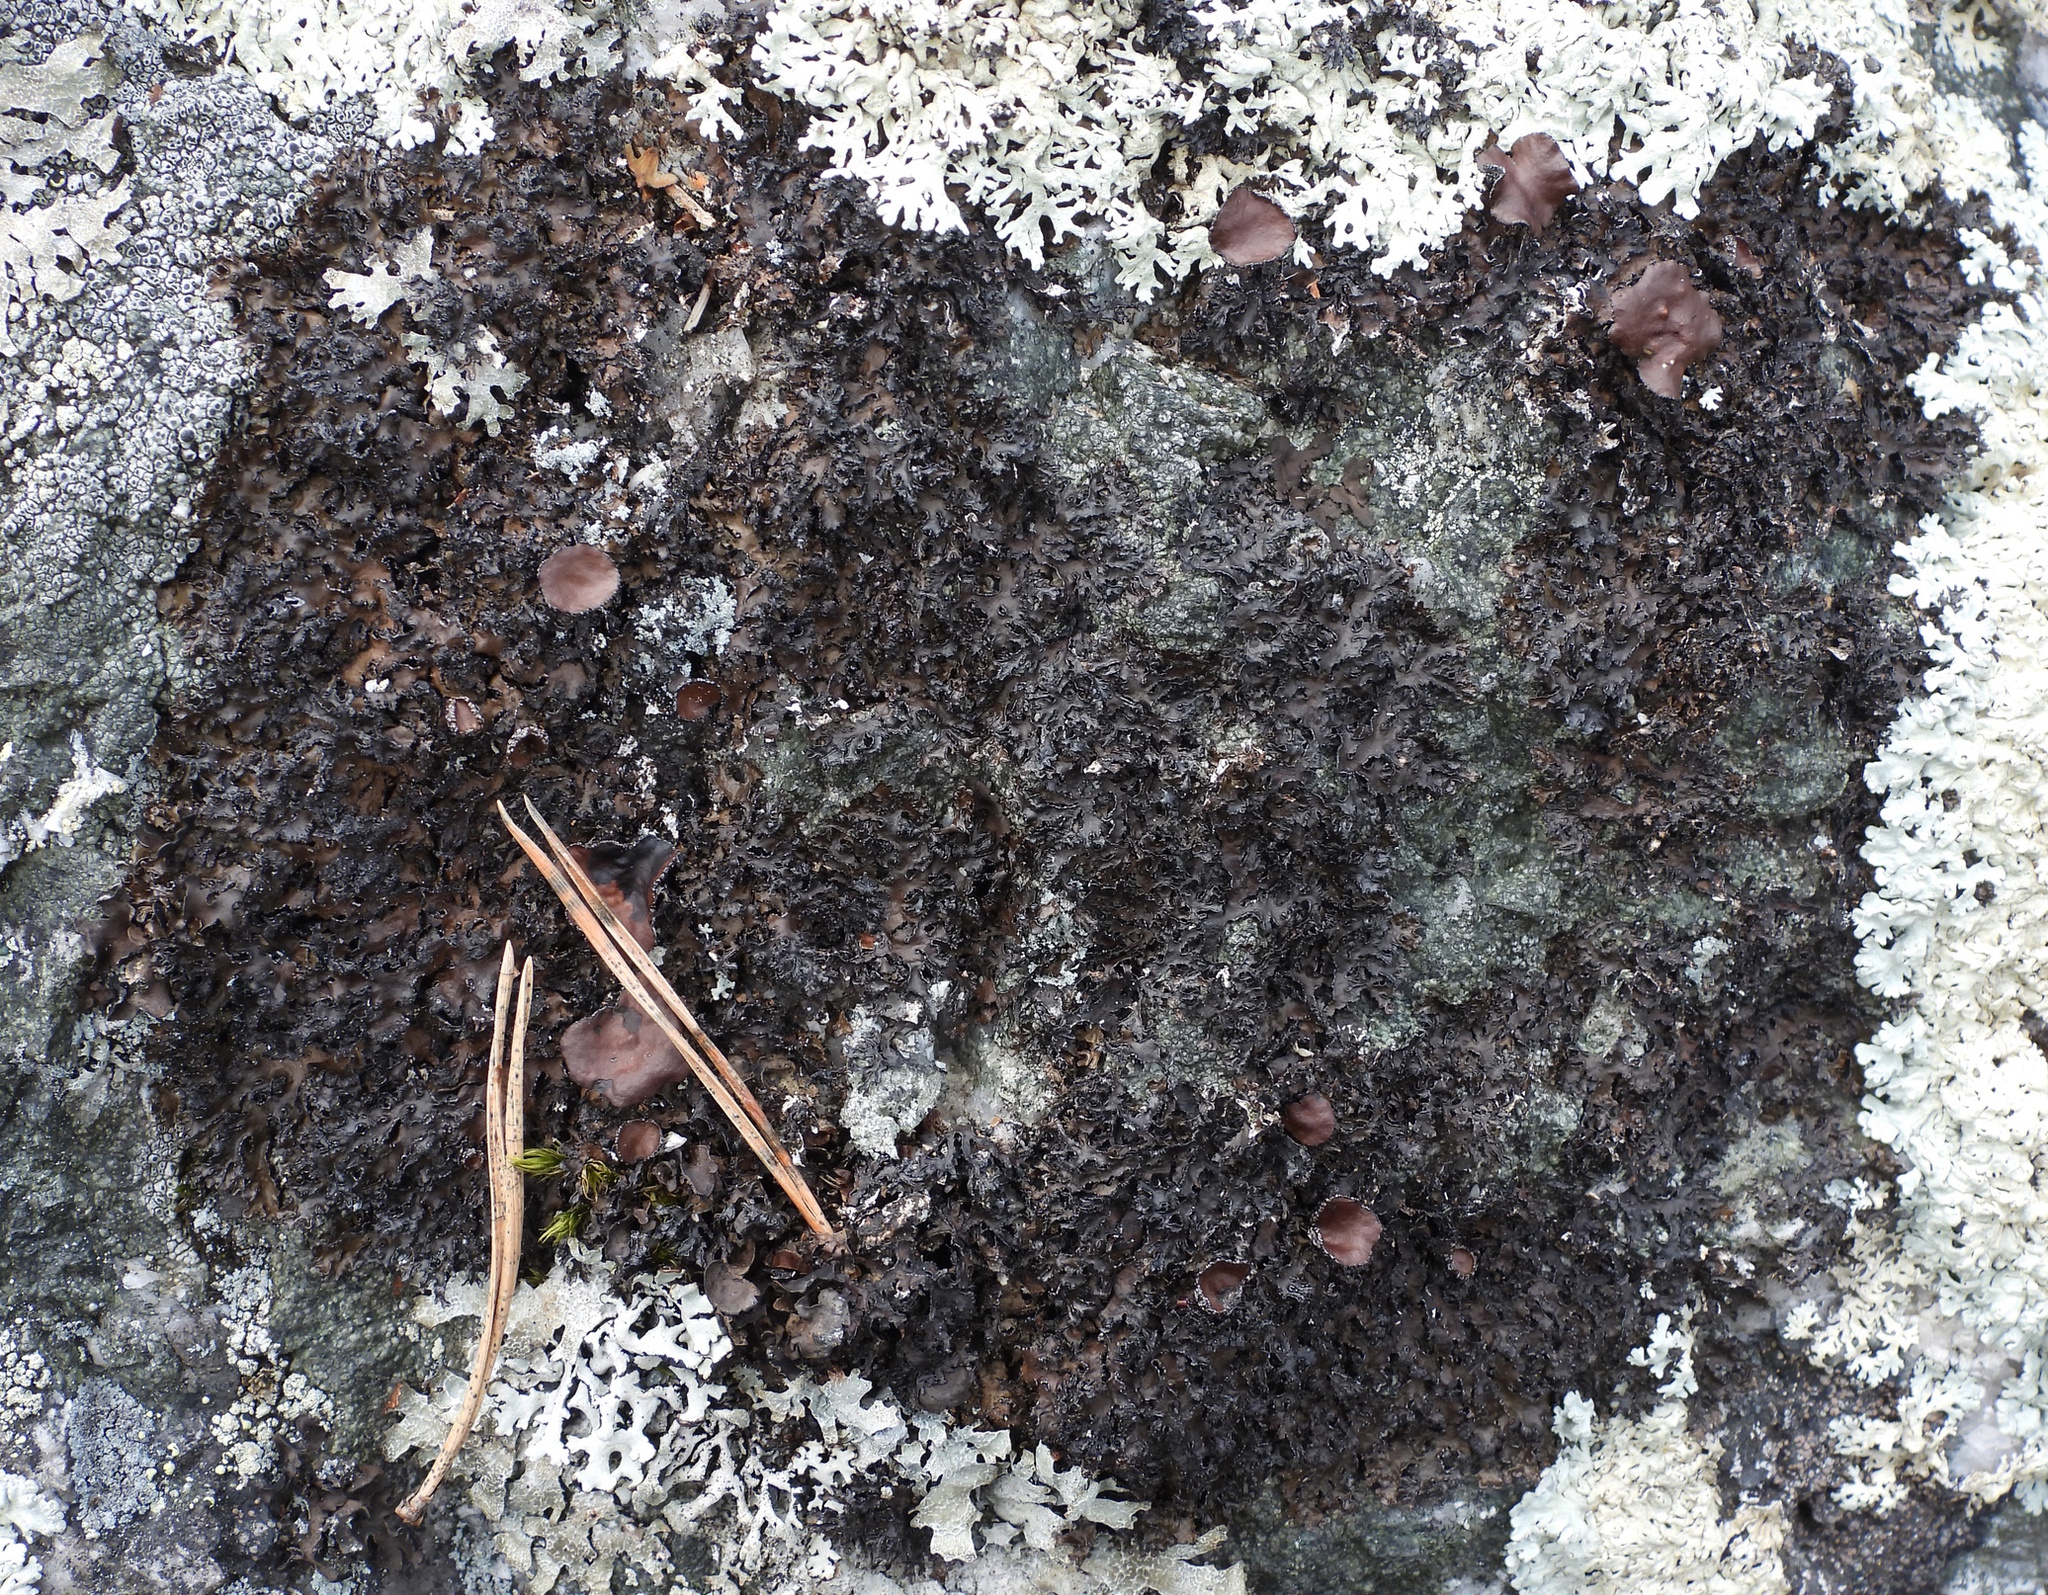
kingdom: Fungi
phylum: Ascomycota
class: Lecanoromycetes
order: Lecanorales
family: Parmeliaceae
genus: Melanelia
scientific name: Melanelia hepatizon
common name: Rimmed camouflage lichen
